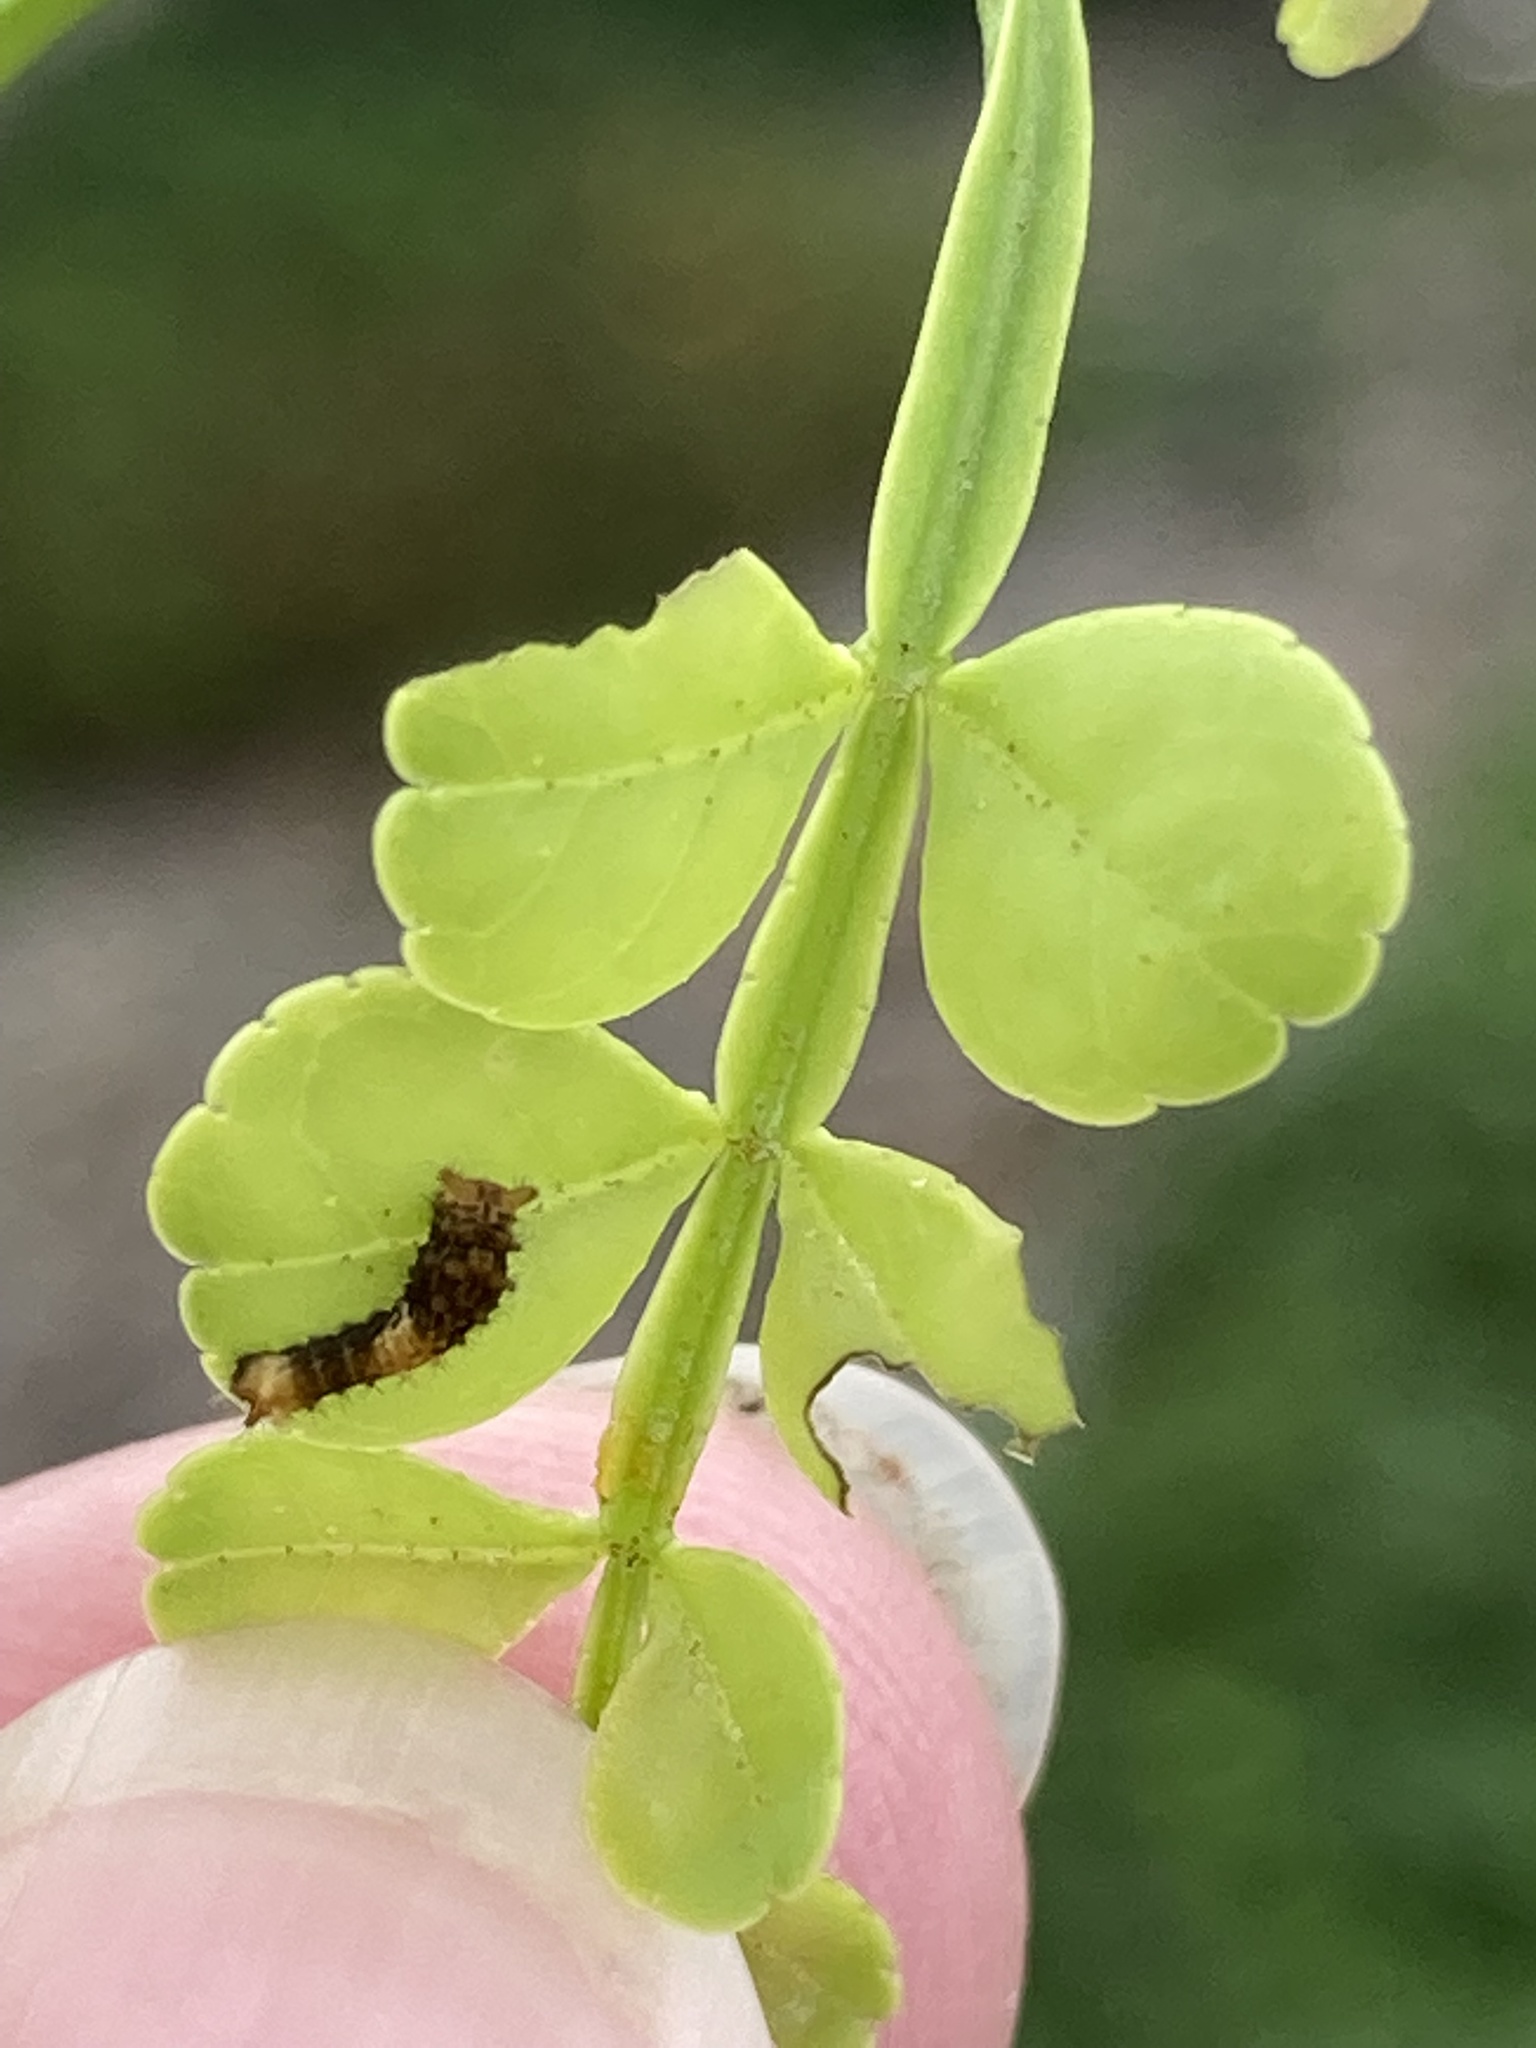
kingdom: Animalia
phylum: Arthropoda
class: Insecta
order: Lepidoptera
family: Papilionidae
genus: Papilio
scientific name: Papilio cresphontes
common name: Giant swallowtail
